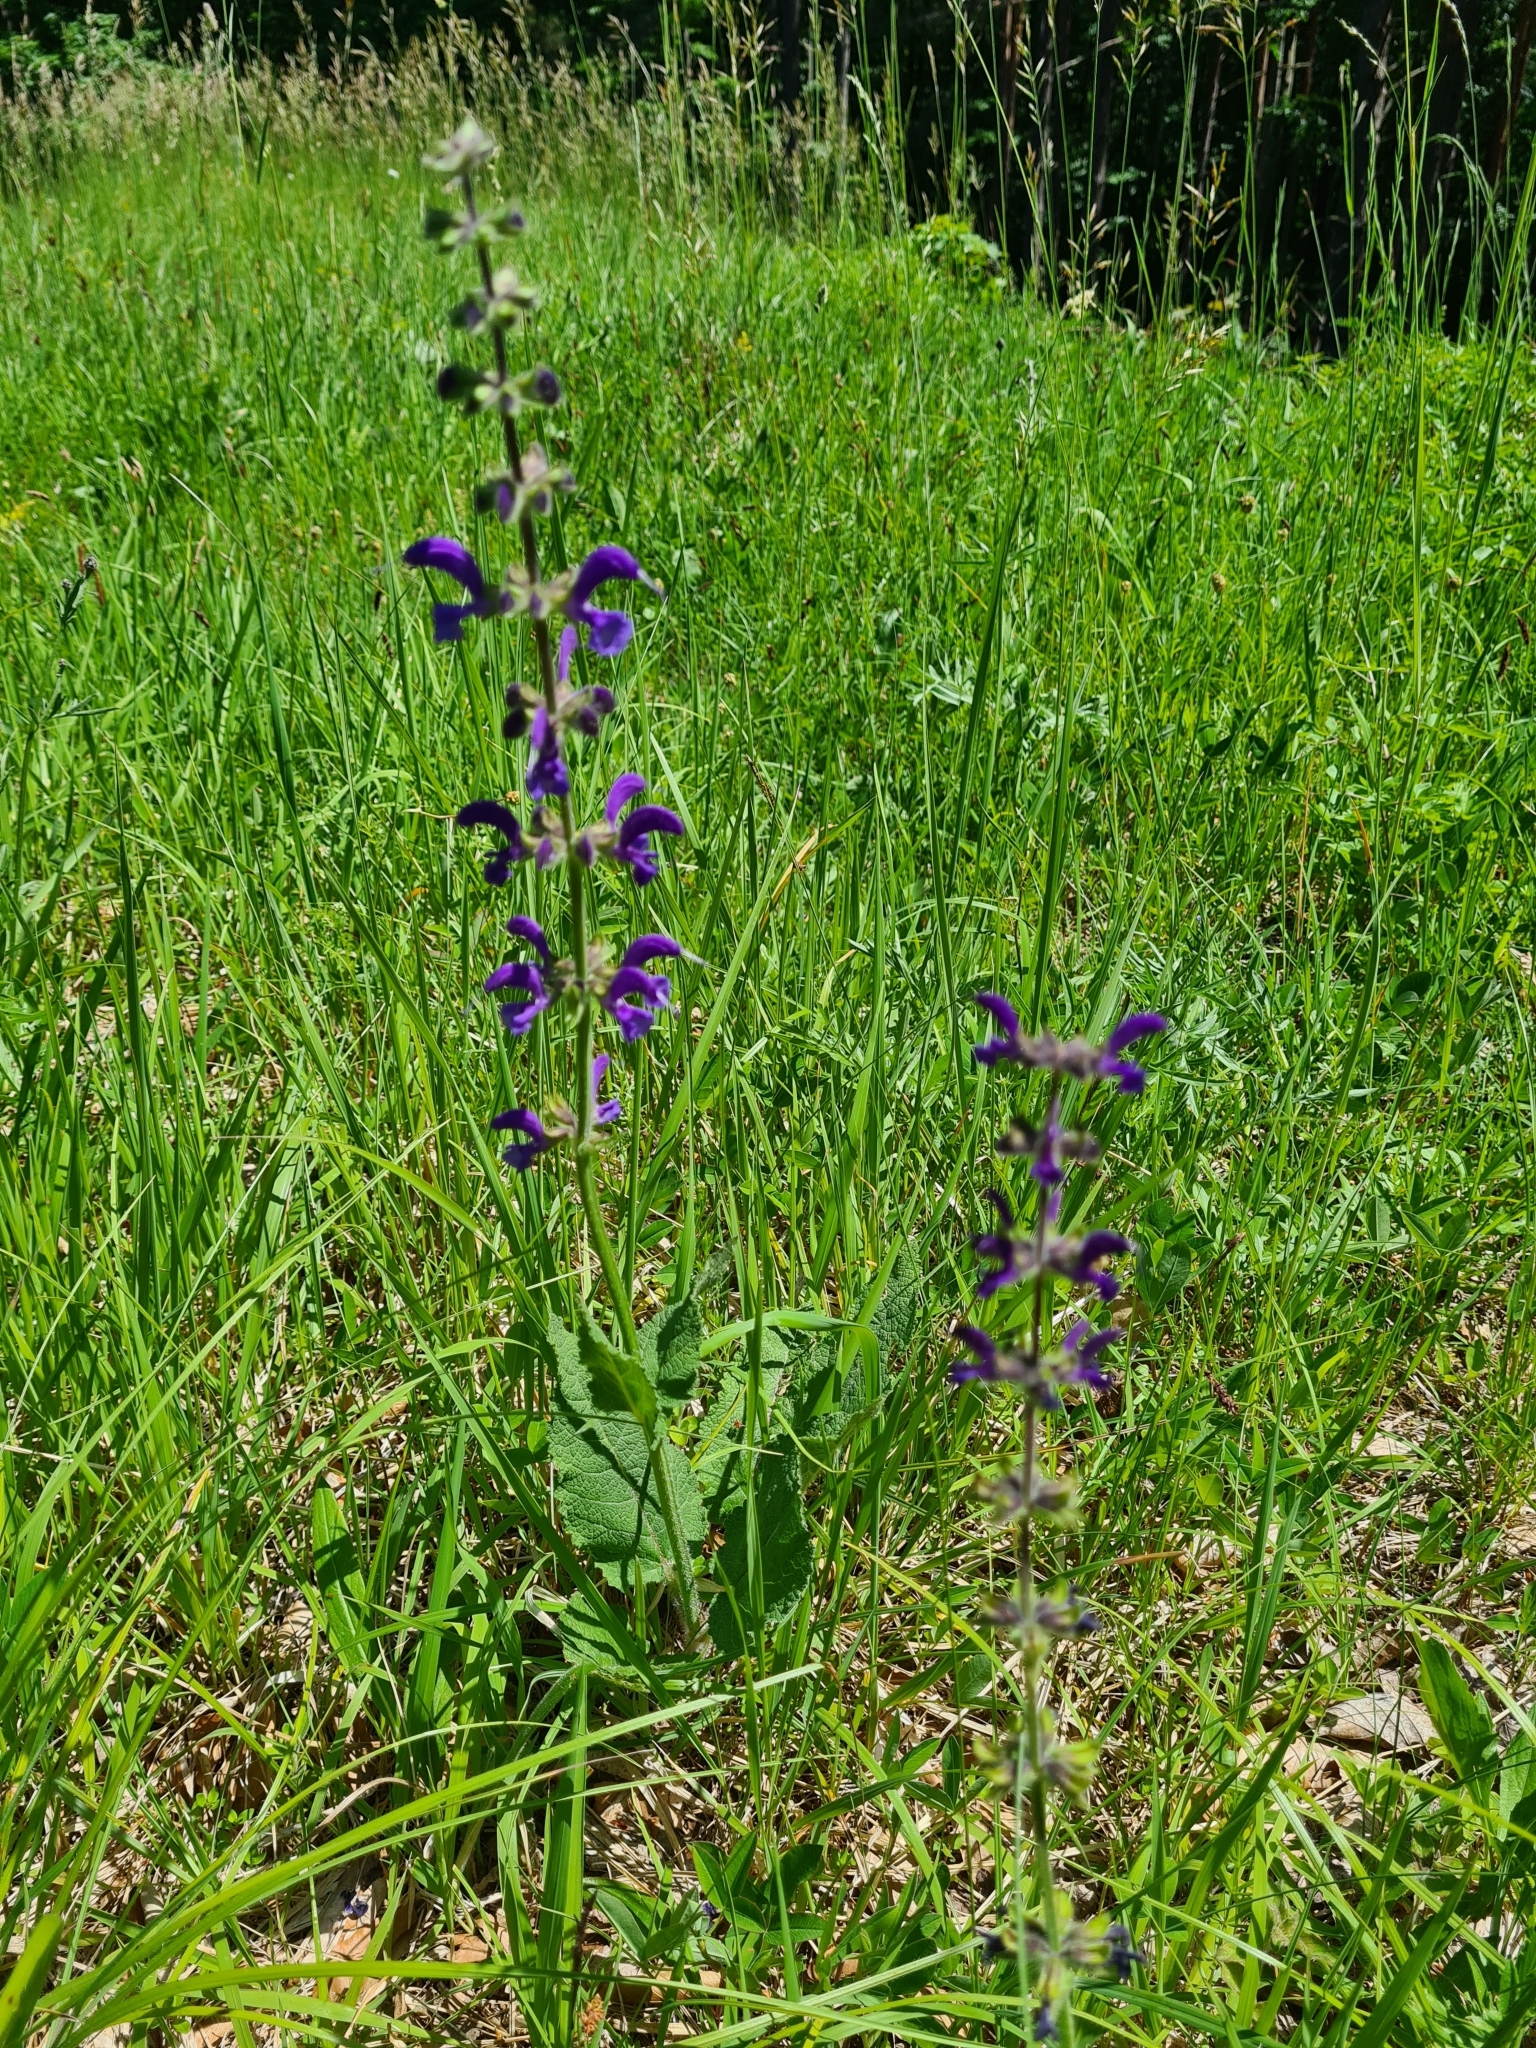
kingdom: Plantae
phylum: Tracheophyta
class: Magnoliopsida
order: Lamiales
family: Lamiaceae
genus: Salvia
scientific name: Salvia pratensis
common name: Meadow sage
